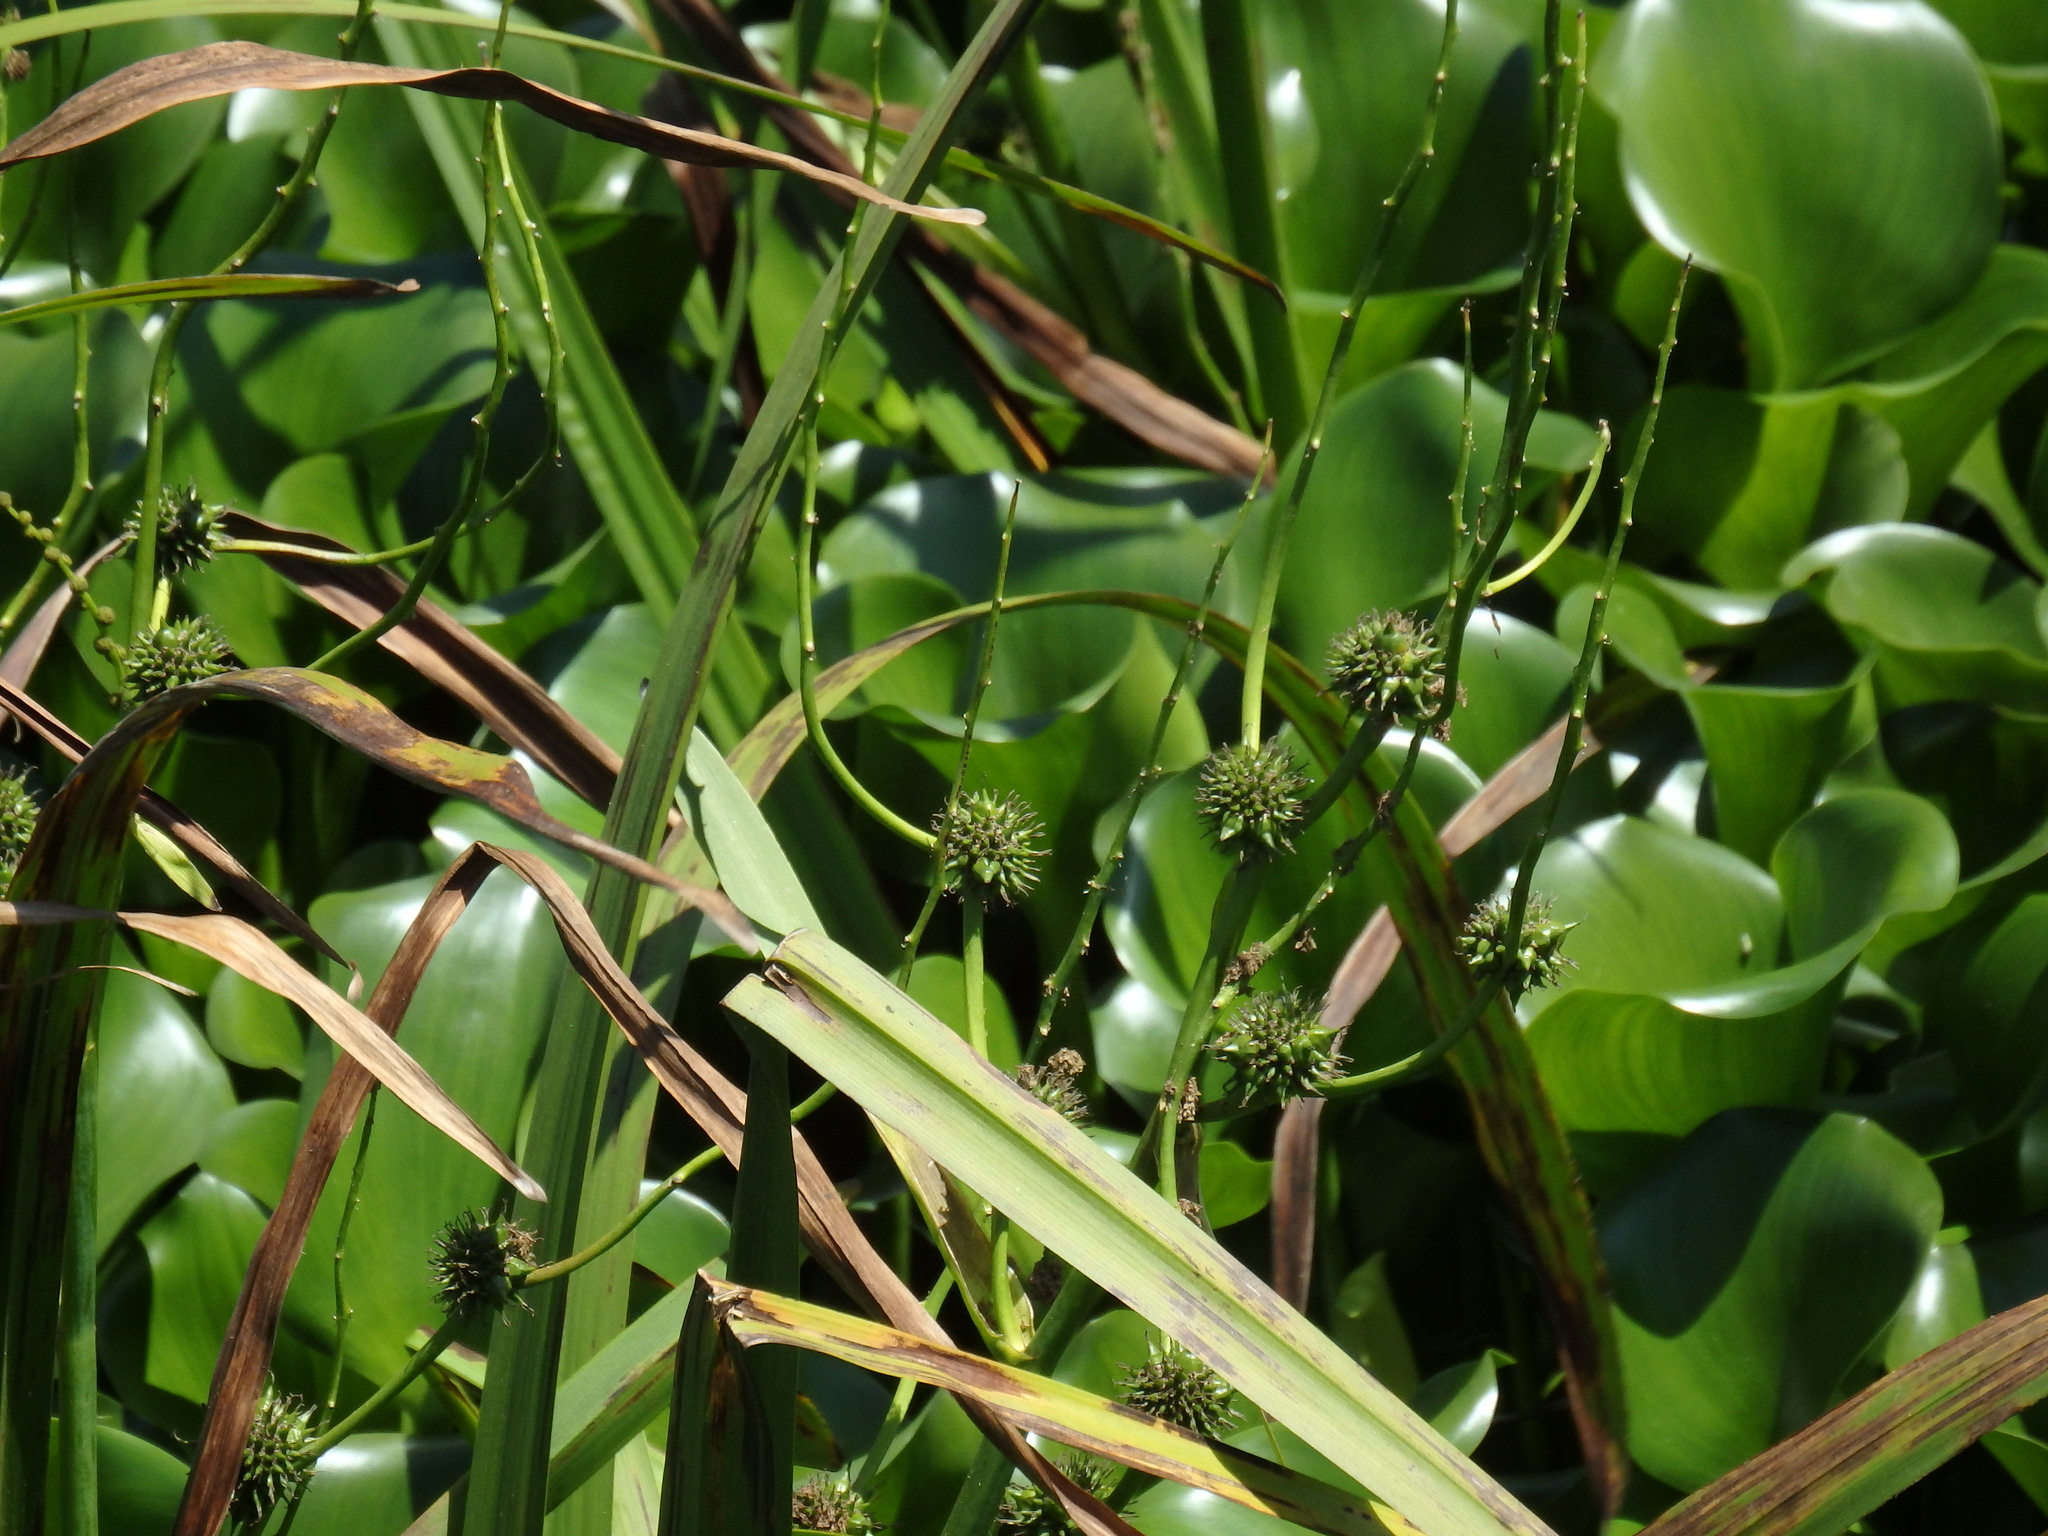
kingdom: Plantae
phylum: Tracheophyta
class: Liliopsida
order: Poales
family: Typhaceae
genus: Sparganium
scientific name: Sparganium erectum
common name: Branched bur-reed
